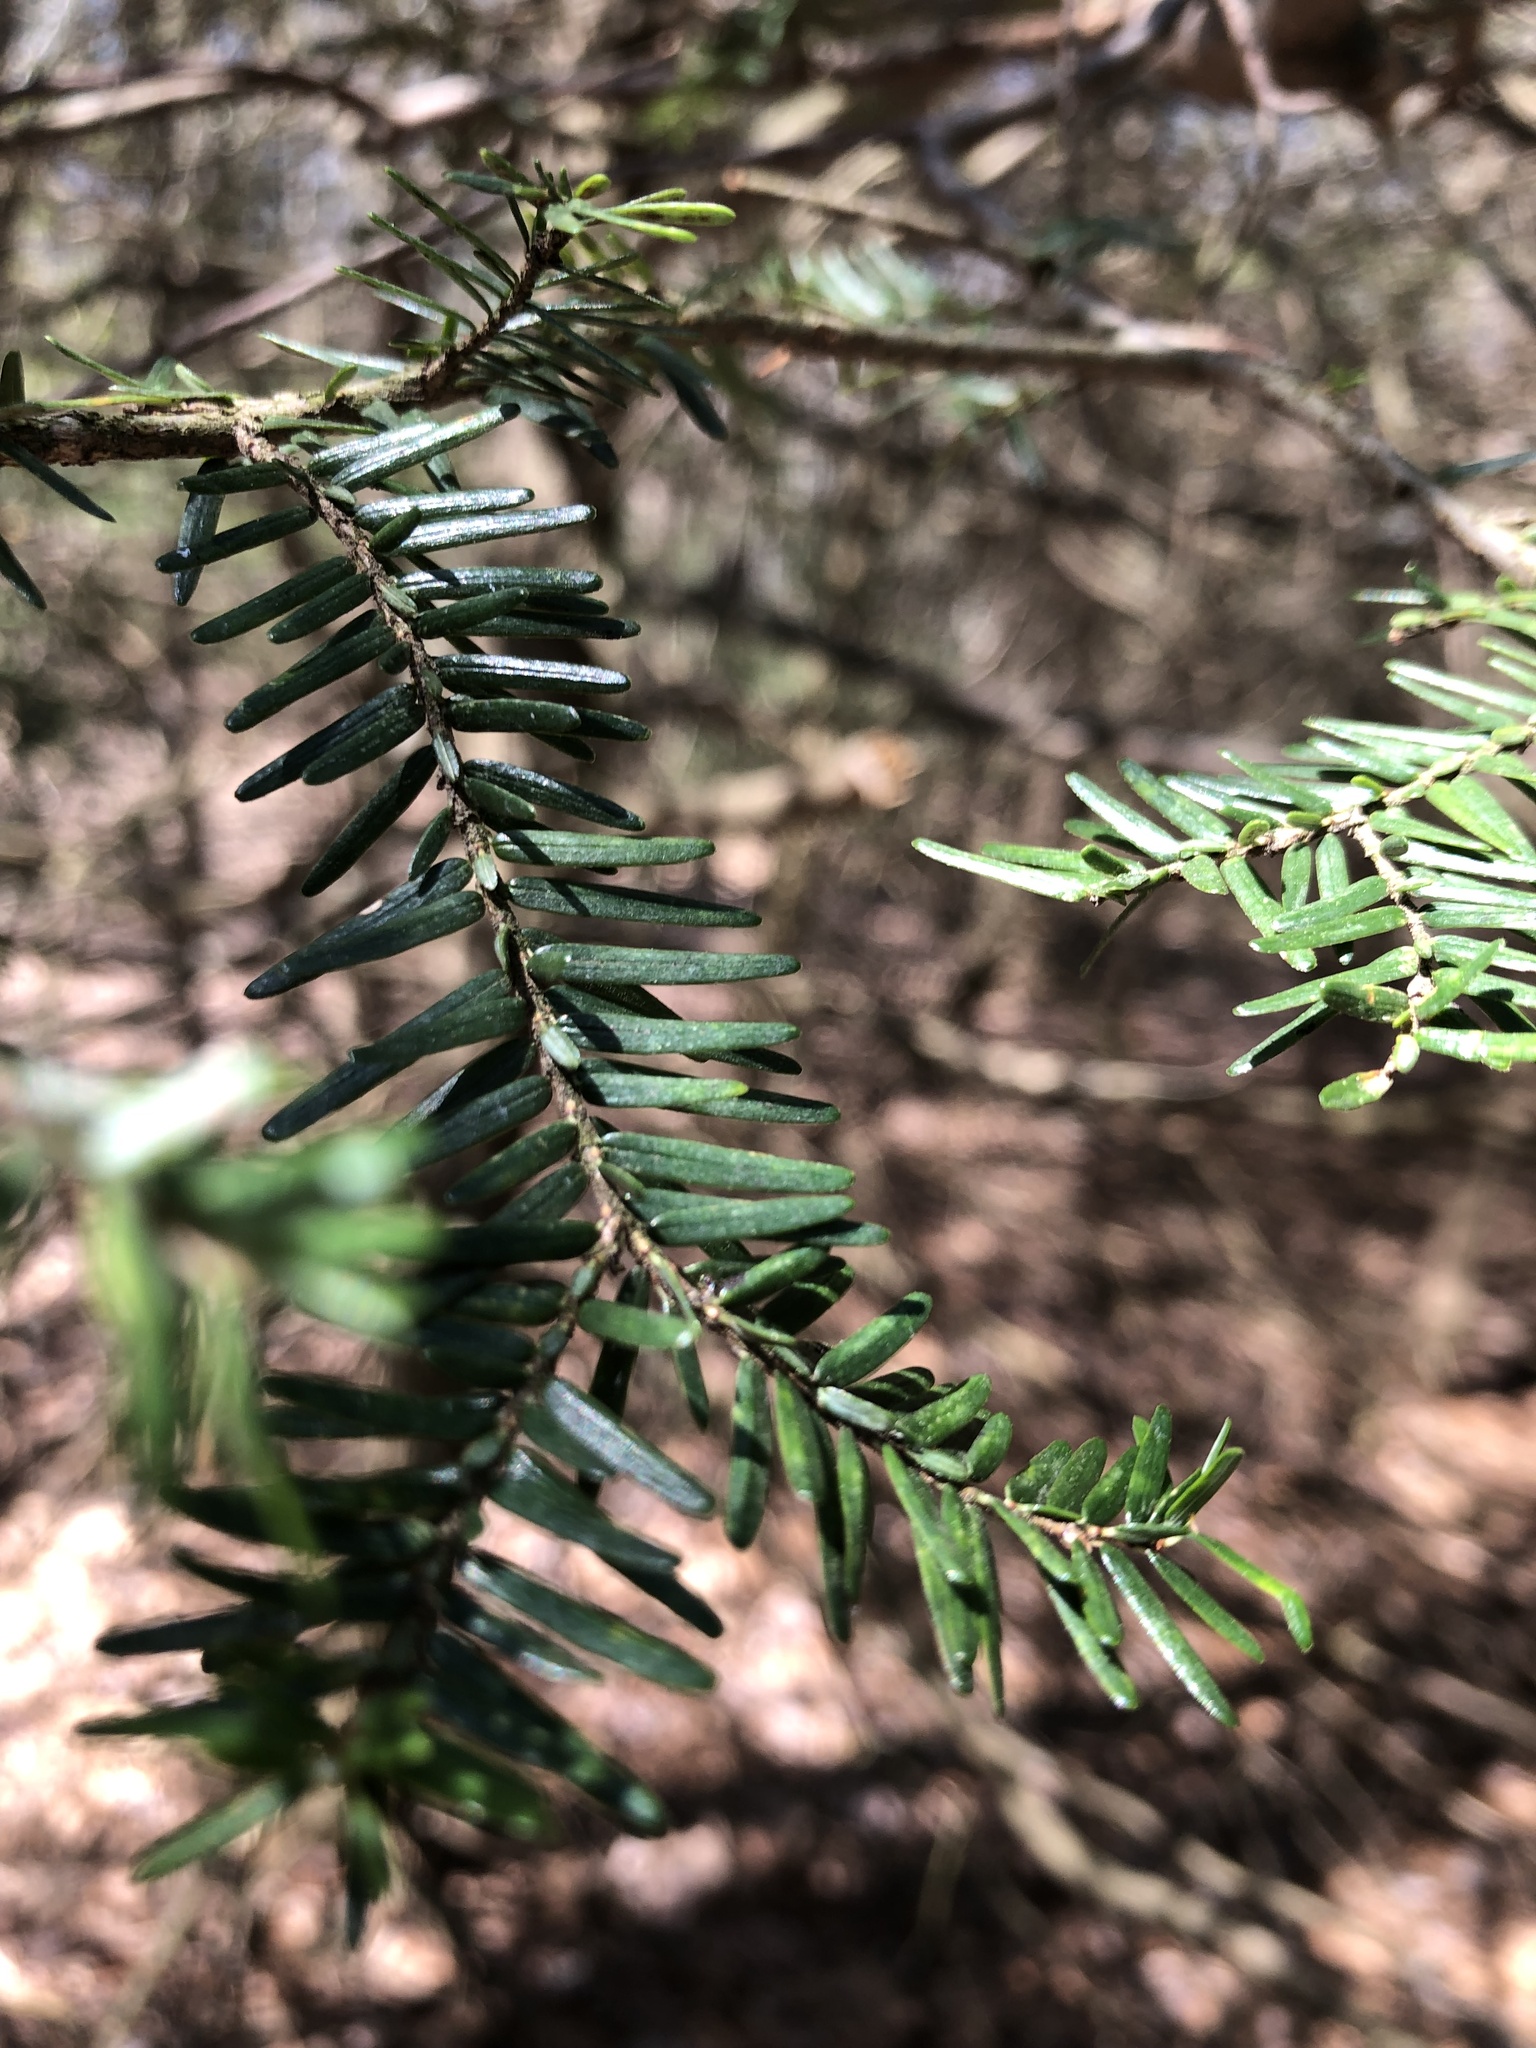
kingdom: Plantae
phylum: Tracheophyta
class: Pinopsida
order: Pinales
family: Pinaceae
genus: Tsuga
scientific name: Tsuga canadensis
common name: Eastern hemlock
